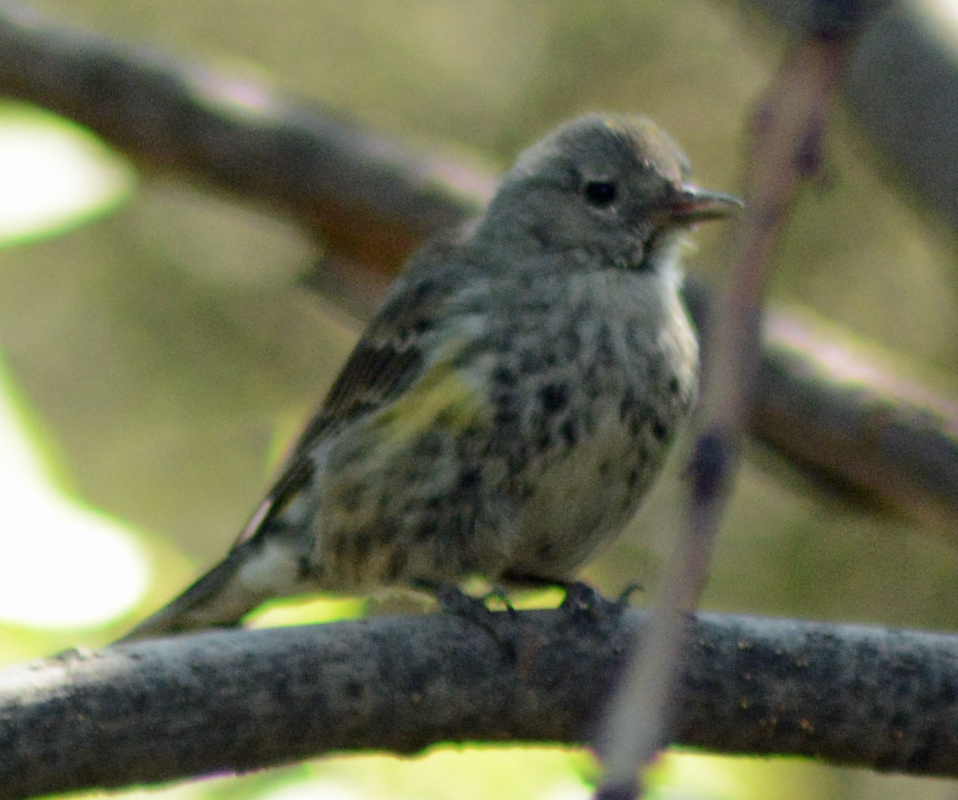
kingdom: Animalia
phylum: Chordata
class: Aves
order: Passeriformes
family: Parulidae
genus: Setophaga
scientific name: Setophaga coronata
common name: Myrtle warbler
